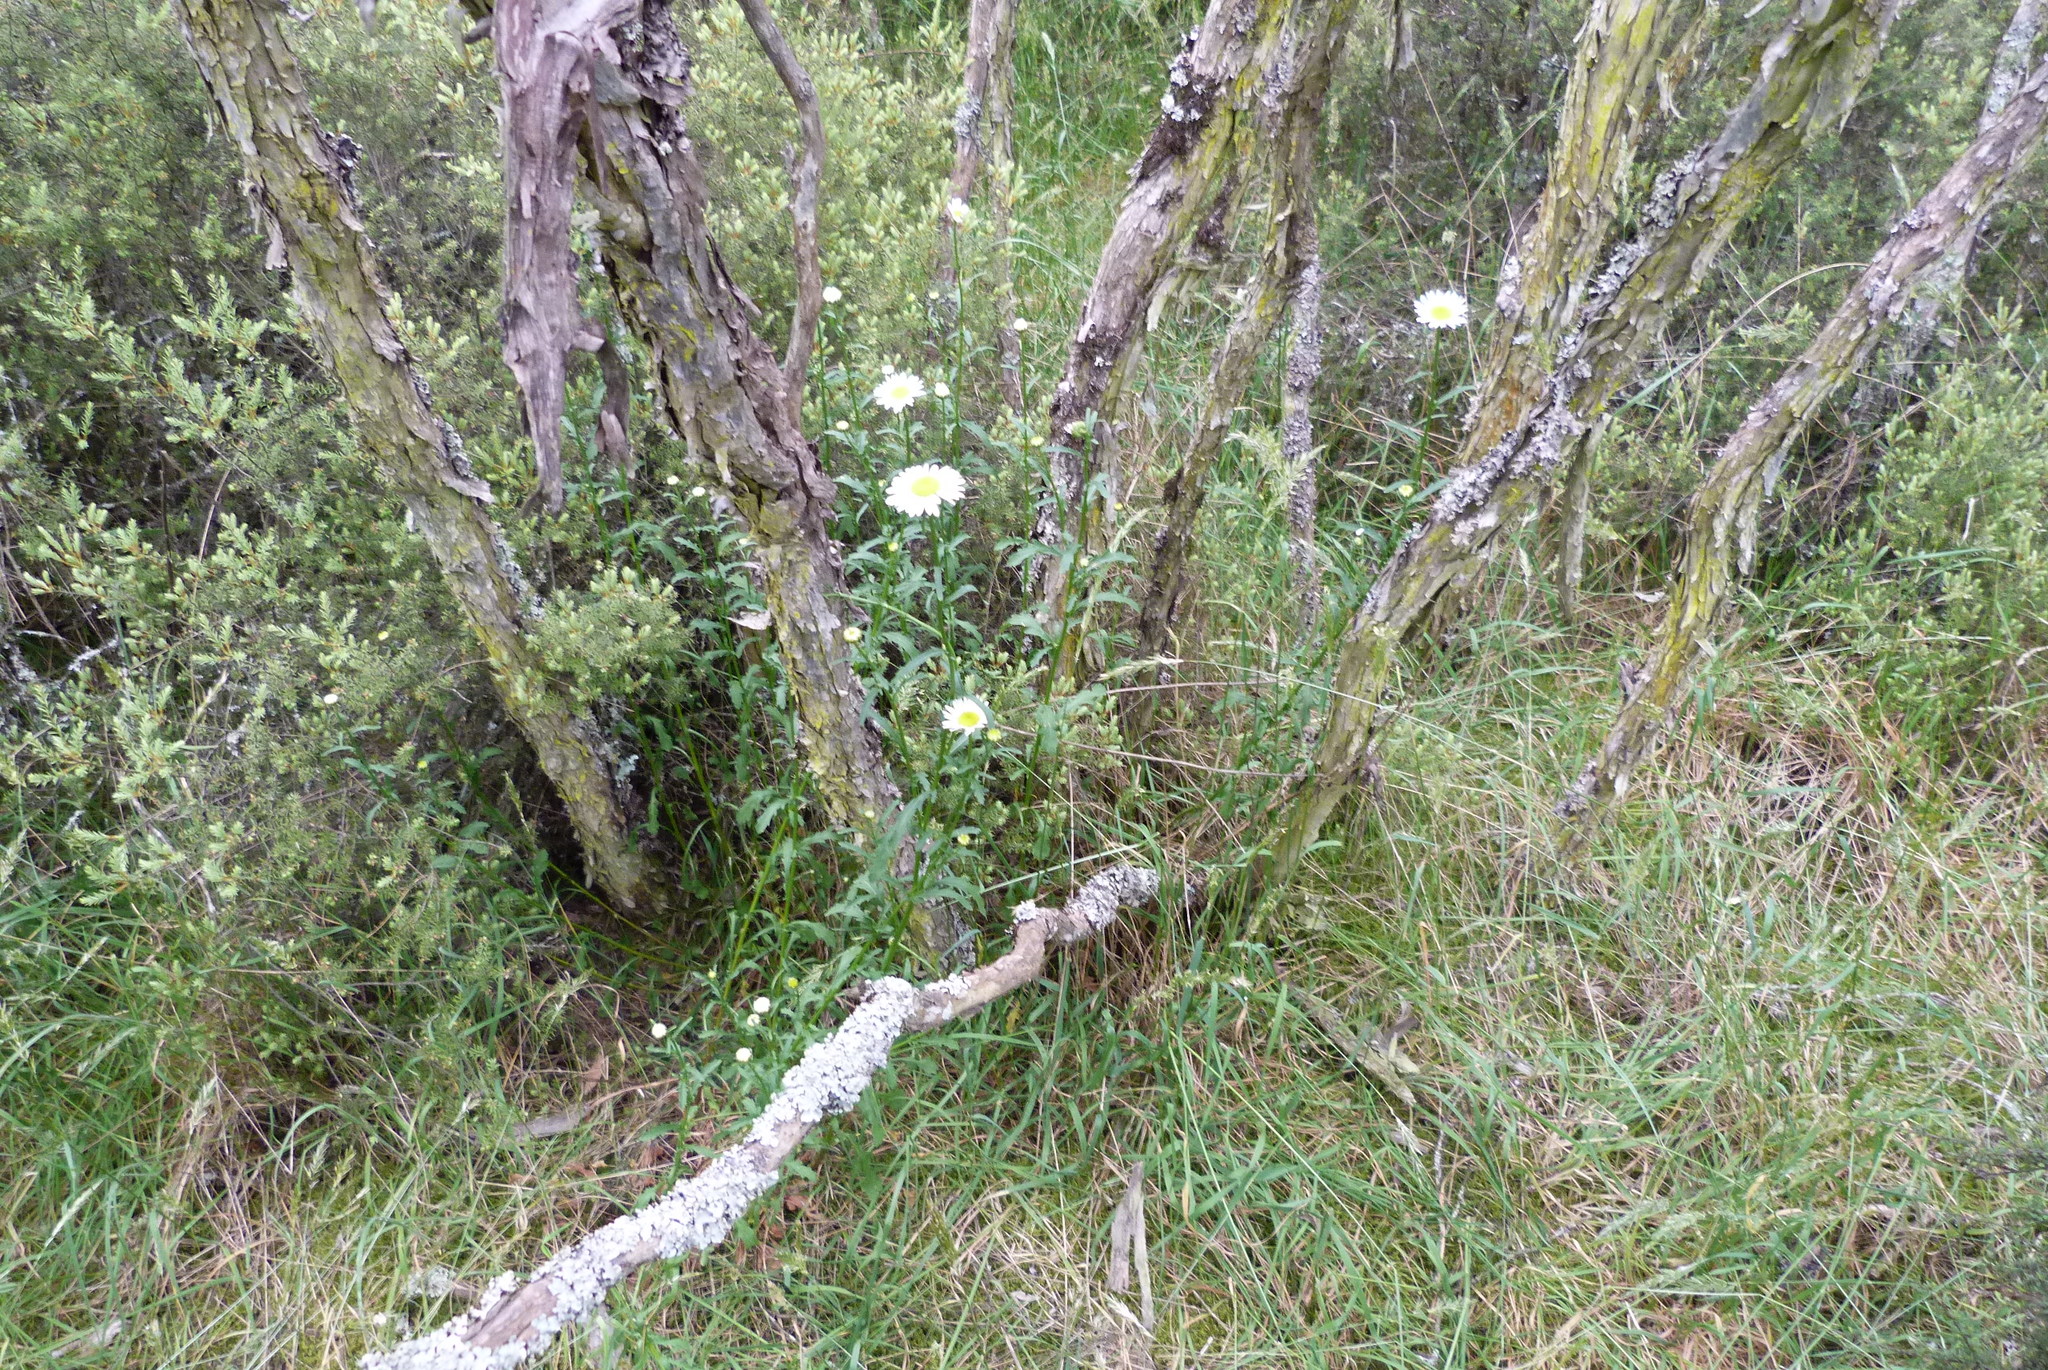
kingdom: Plantae
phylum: Tracheophyta
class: Magnoliopsida
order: Asterales
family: Asteraceae
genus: Leucanthemum
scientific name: Leucanthemum vulgare
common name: Oxeye daisy
